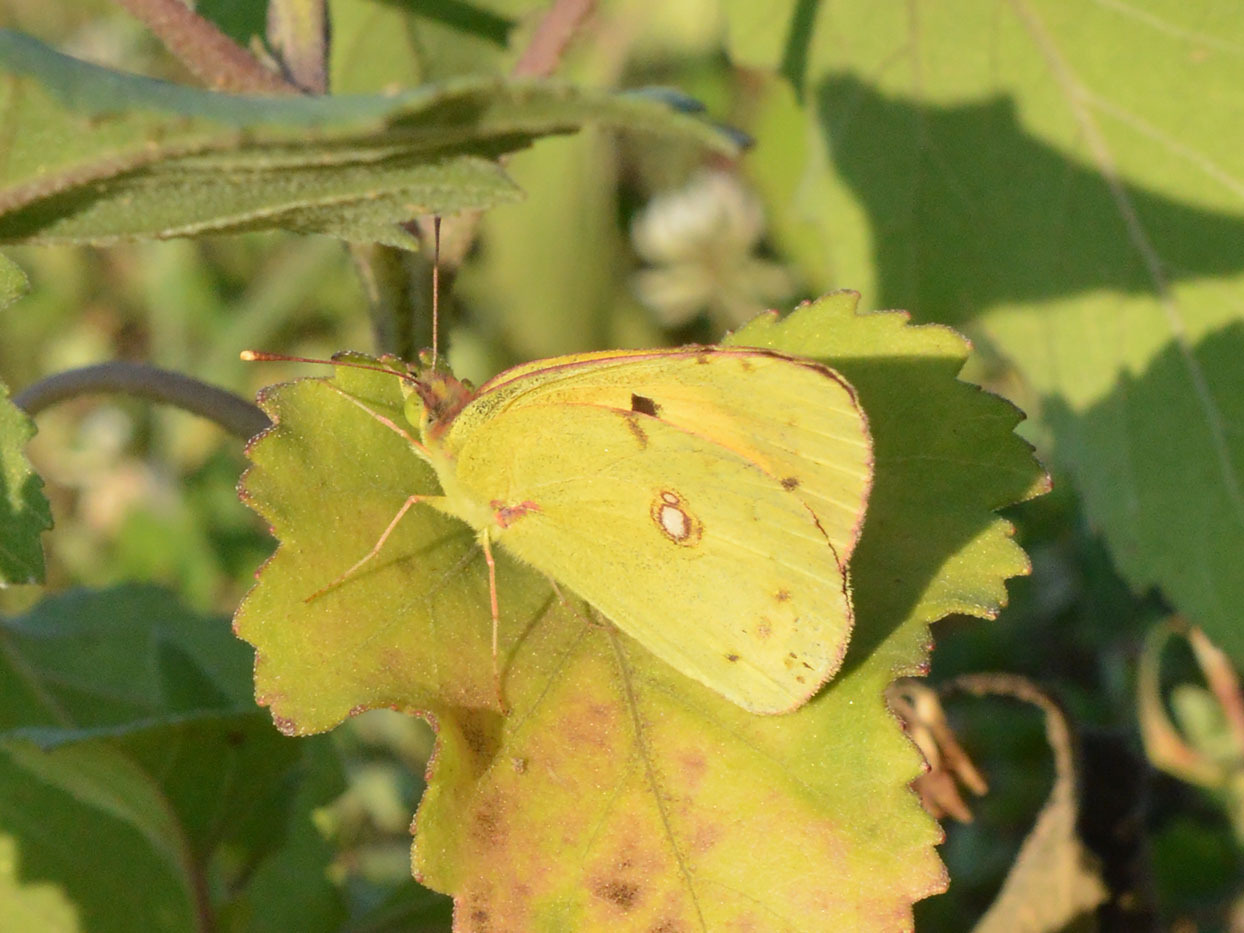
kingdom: Animalia
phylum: Arthropoda
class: Insecta
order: Lepidoptera
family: Pieridae
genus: Colias
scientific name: Colias croceus
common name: Clouded yellow
